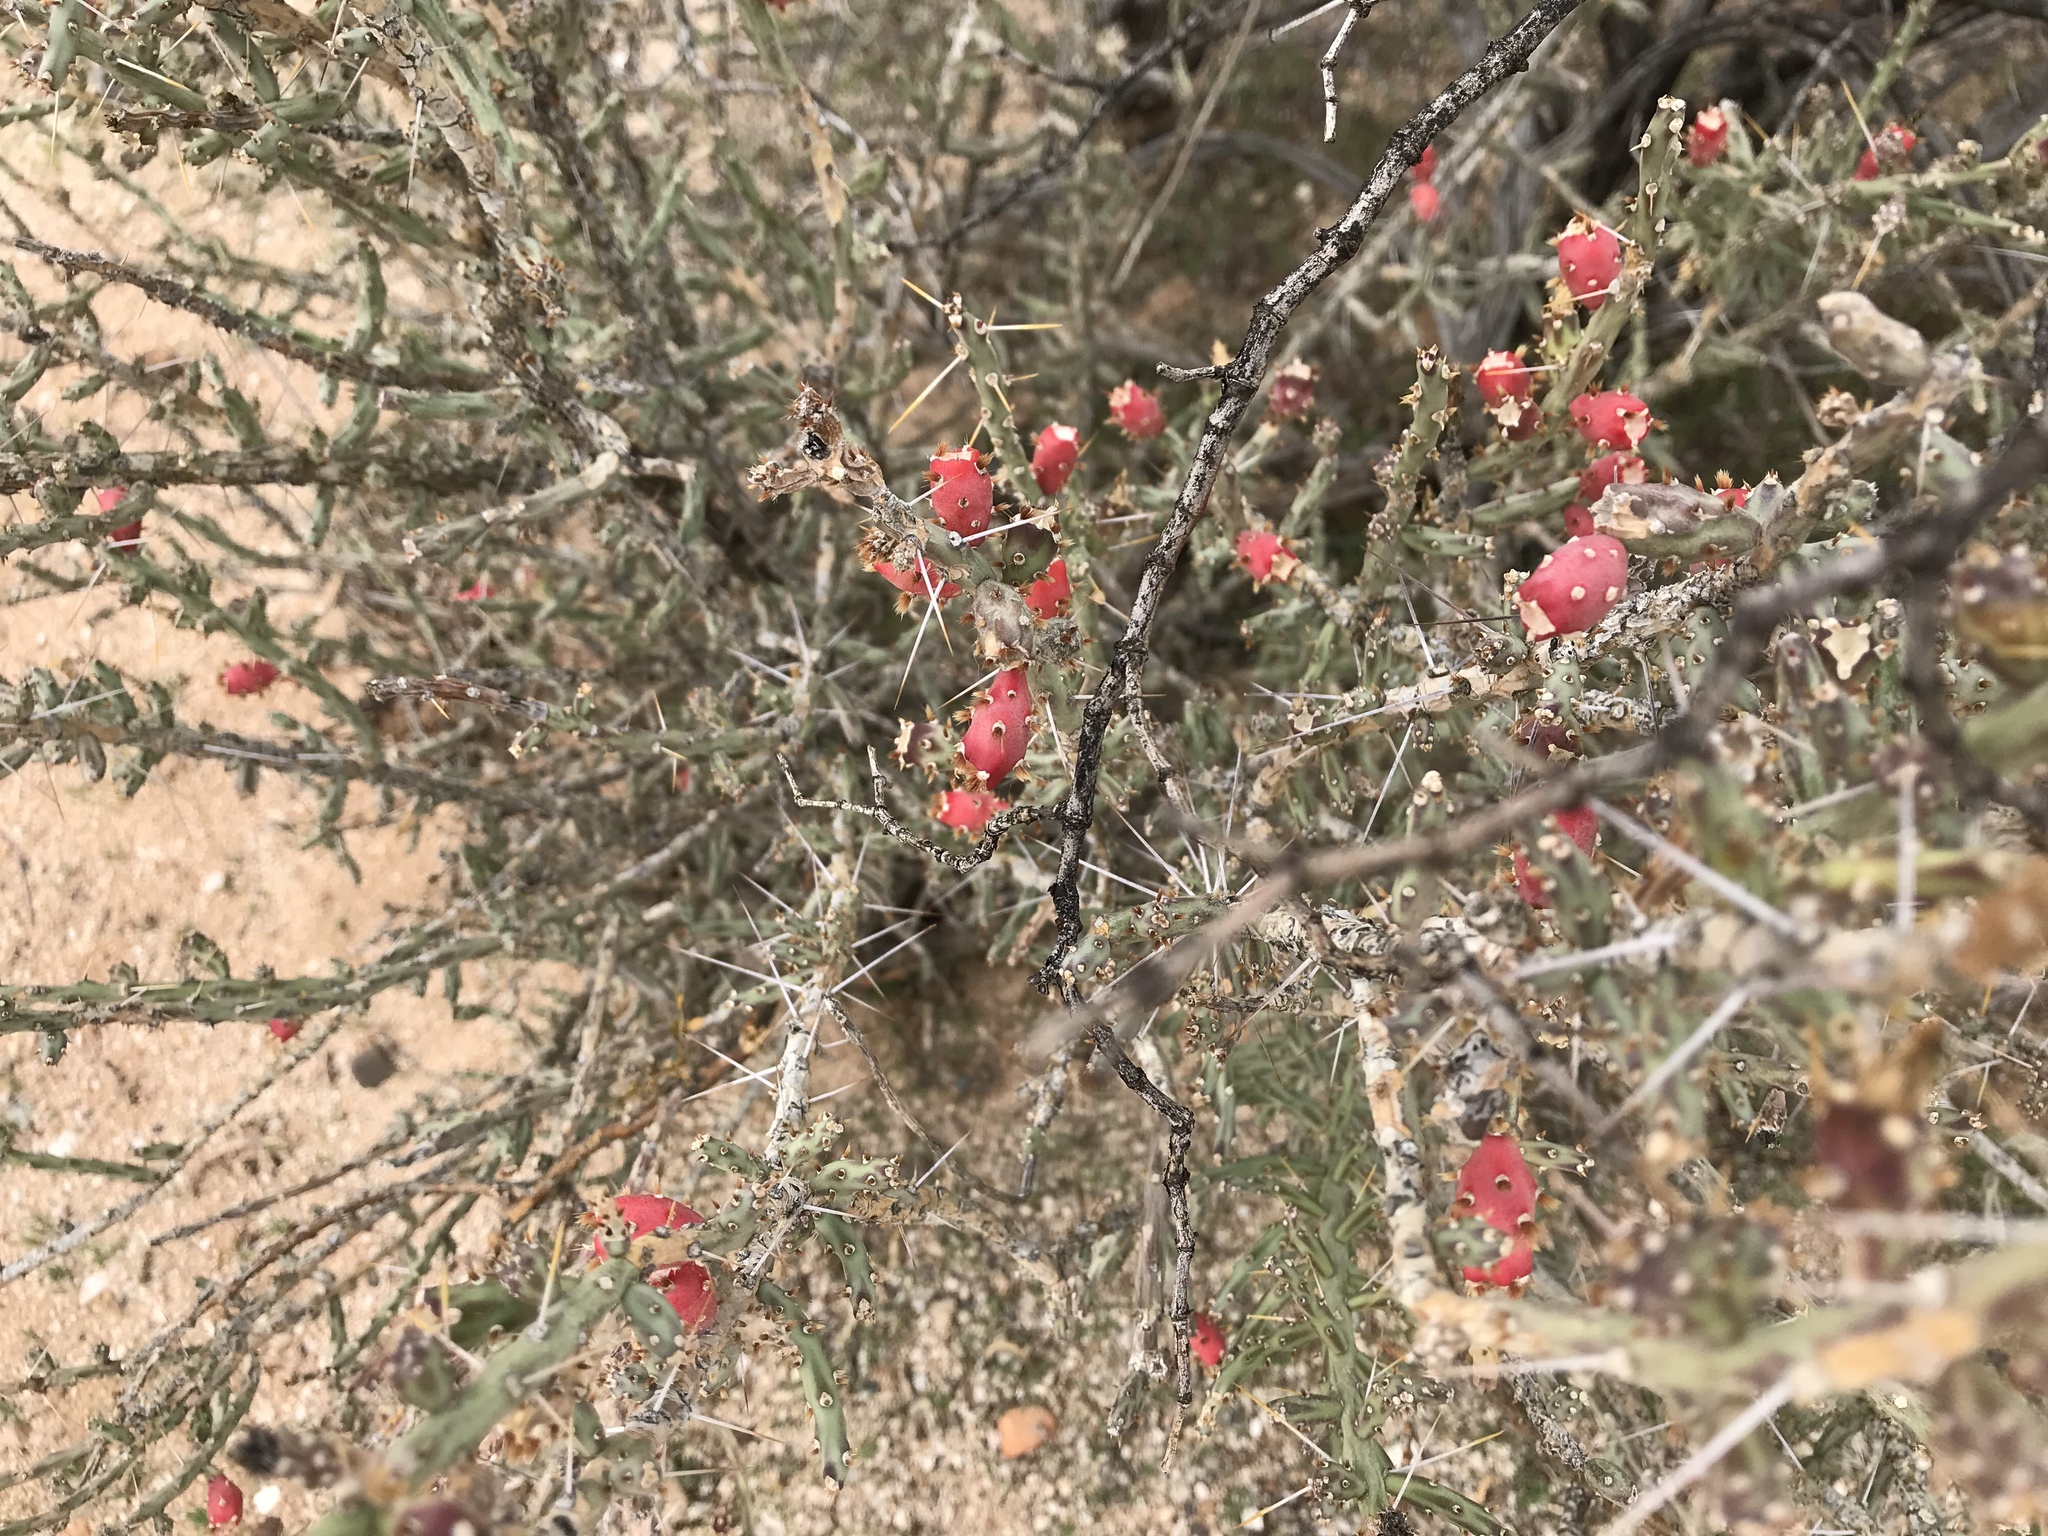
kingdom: Plantae
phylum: Tracheophyta
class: Magnoliopsida
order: Caryophyllales
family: Cactaceae
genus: Cylindropuntia
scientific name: Cylindropuntia leptocaulis
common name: Christmas cactus
